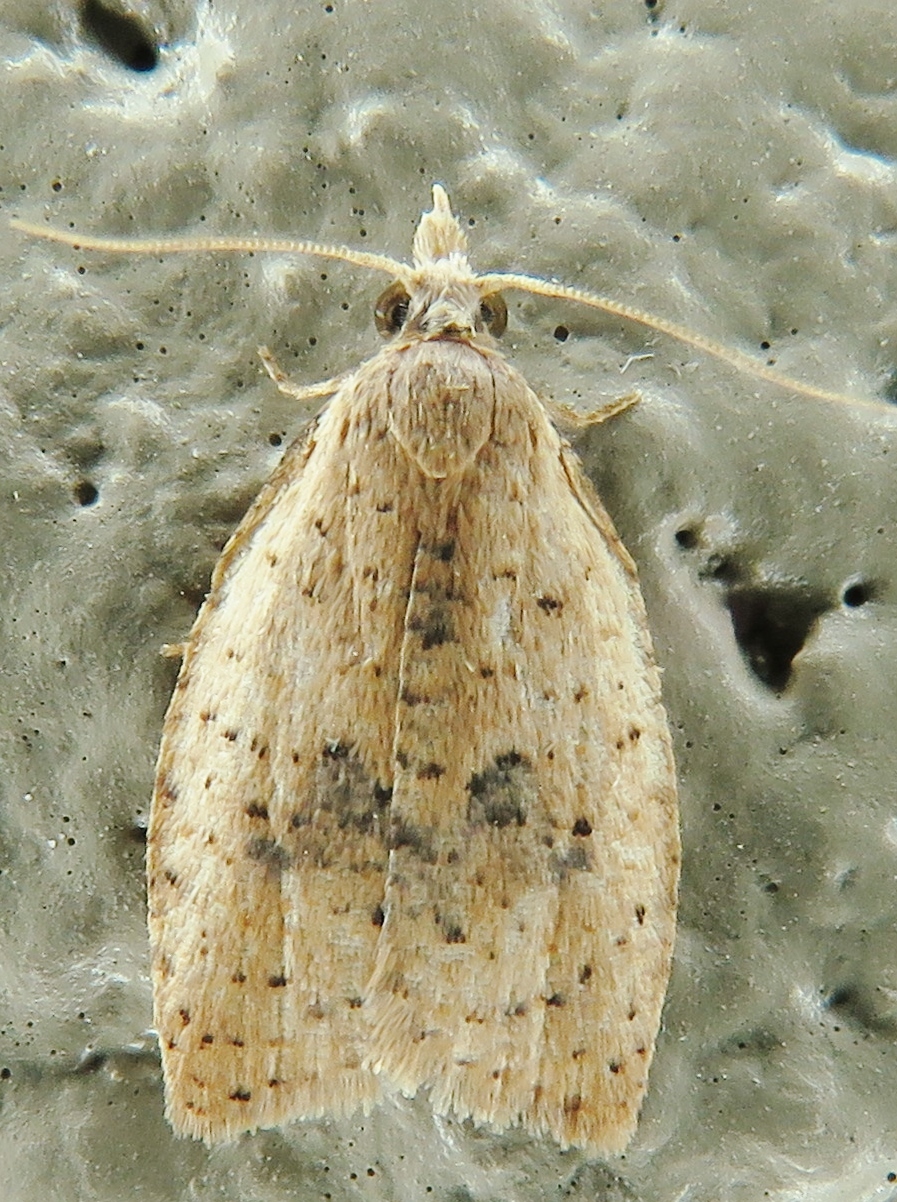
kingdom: Animalia
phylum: Arthropoda
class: Insecta
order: Lepidoptera
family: Tortricidae
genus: Sparganothoides
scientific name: Sparganothoides lentiginosana
